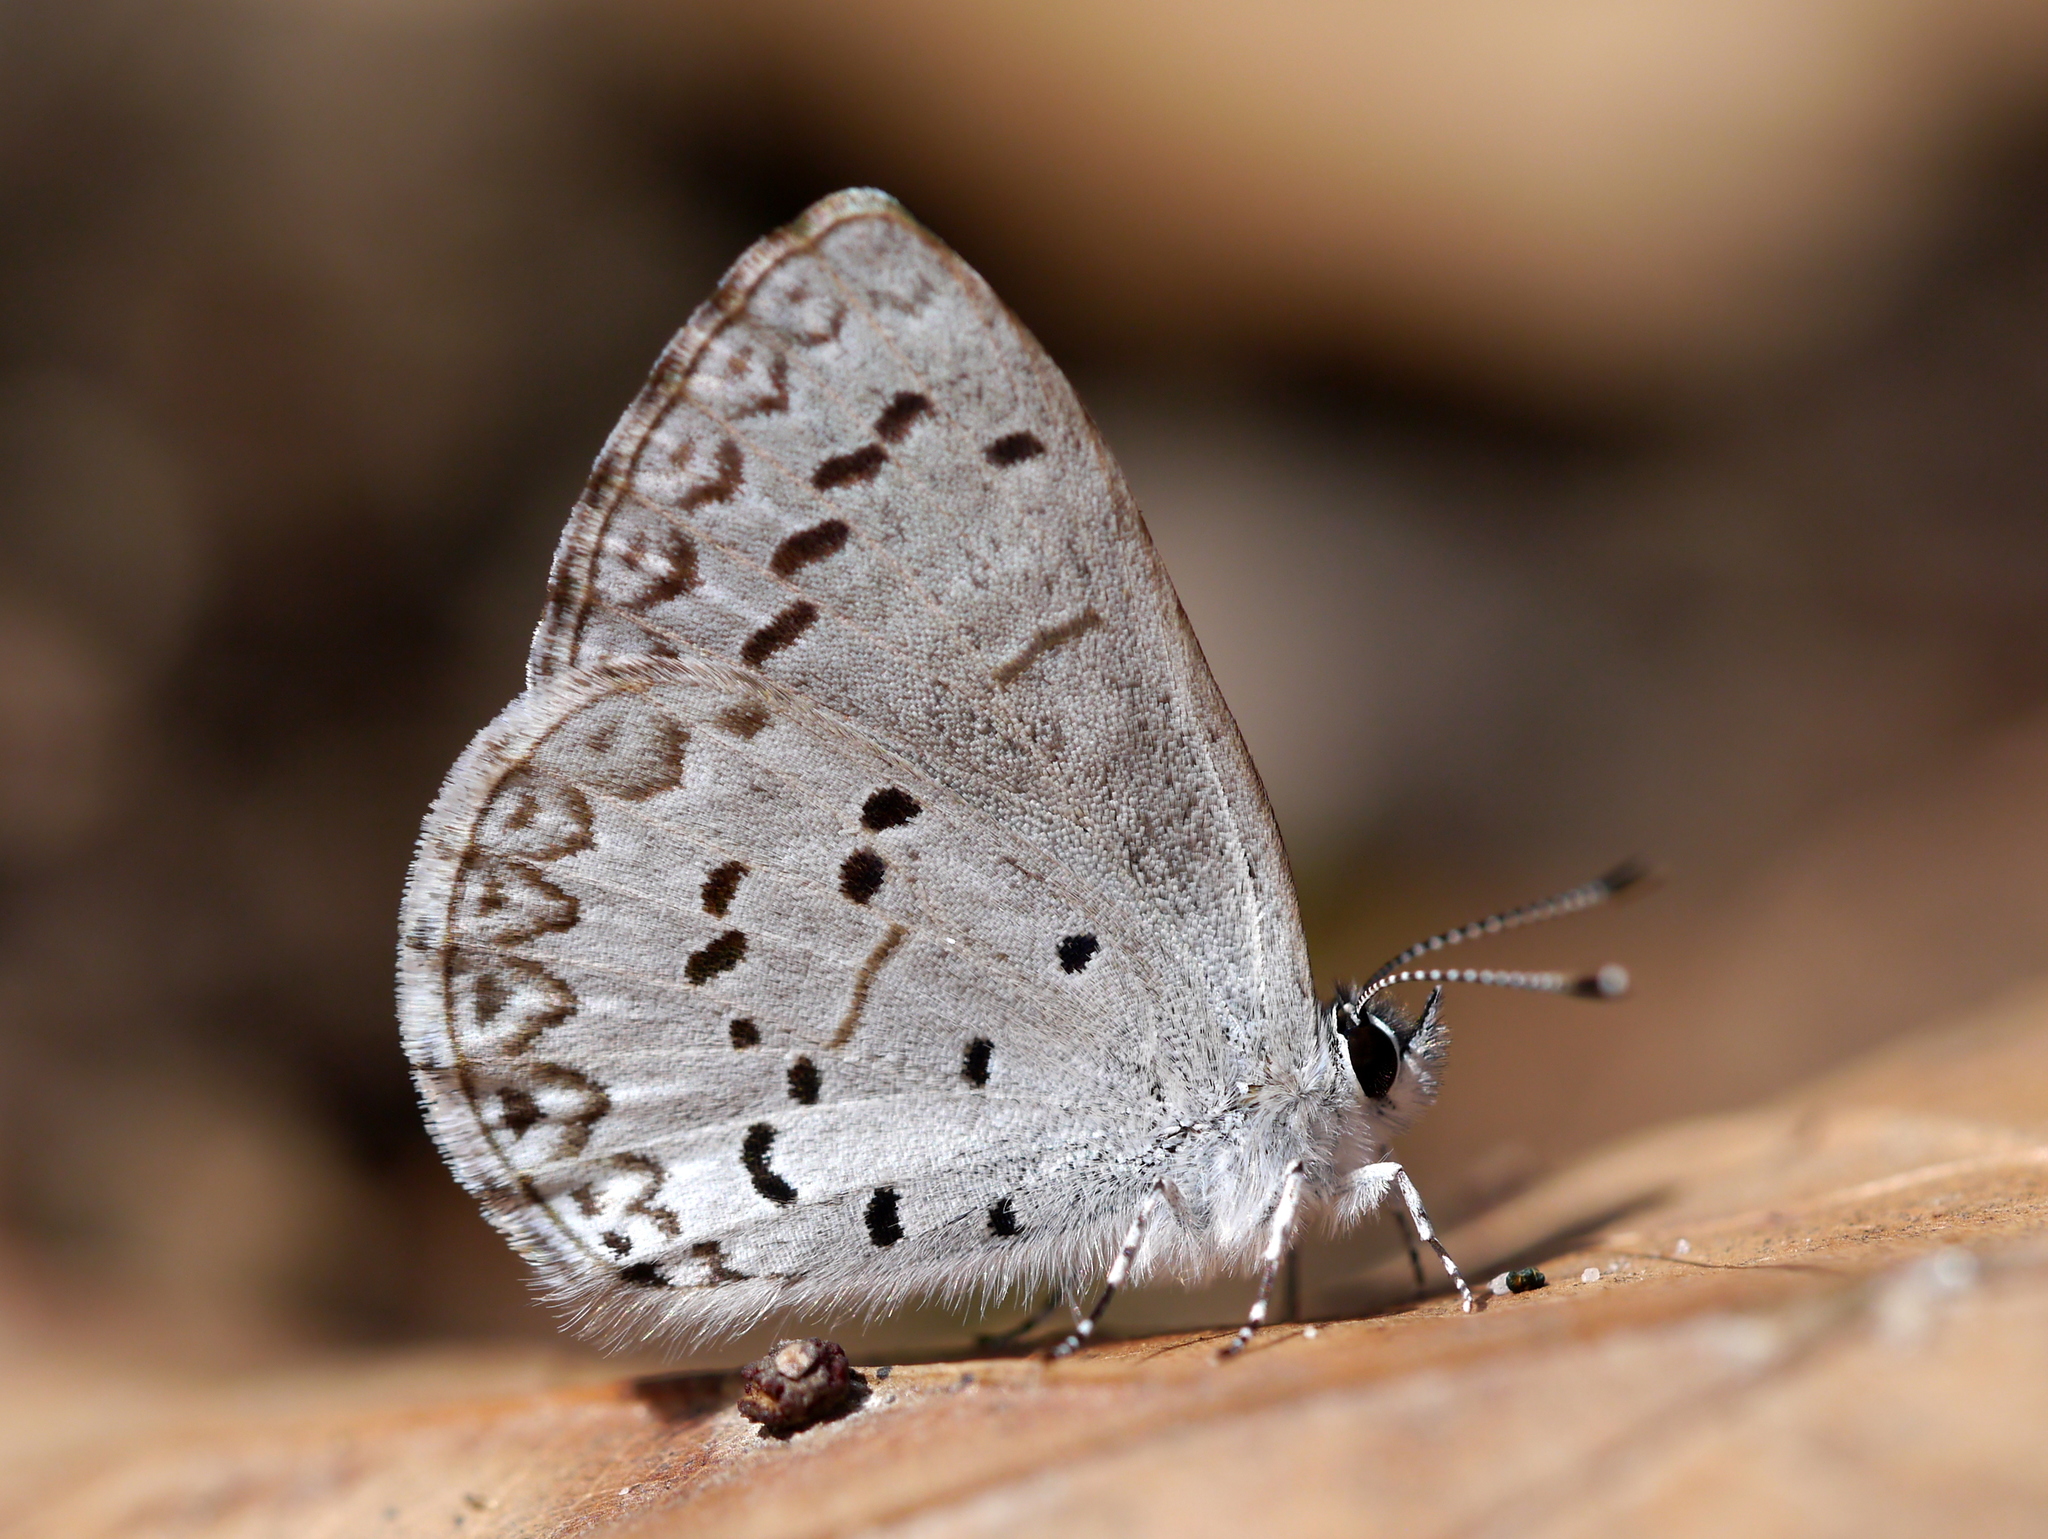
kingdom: Animalia
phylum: Arthropoda
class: Insecta
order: Lepidoptera
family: Lycaenidae
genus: Celastrina
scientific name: Celastrina
